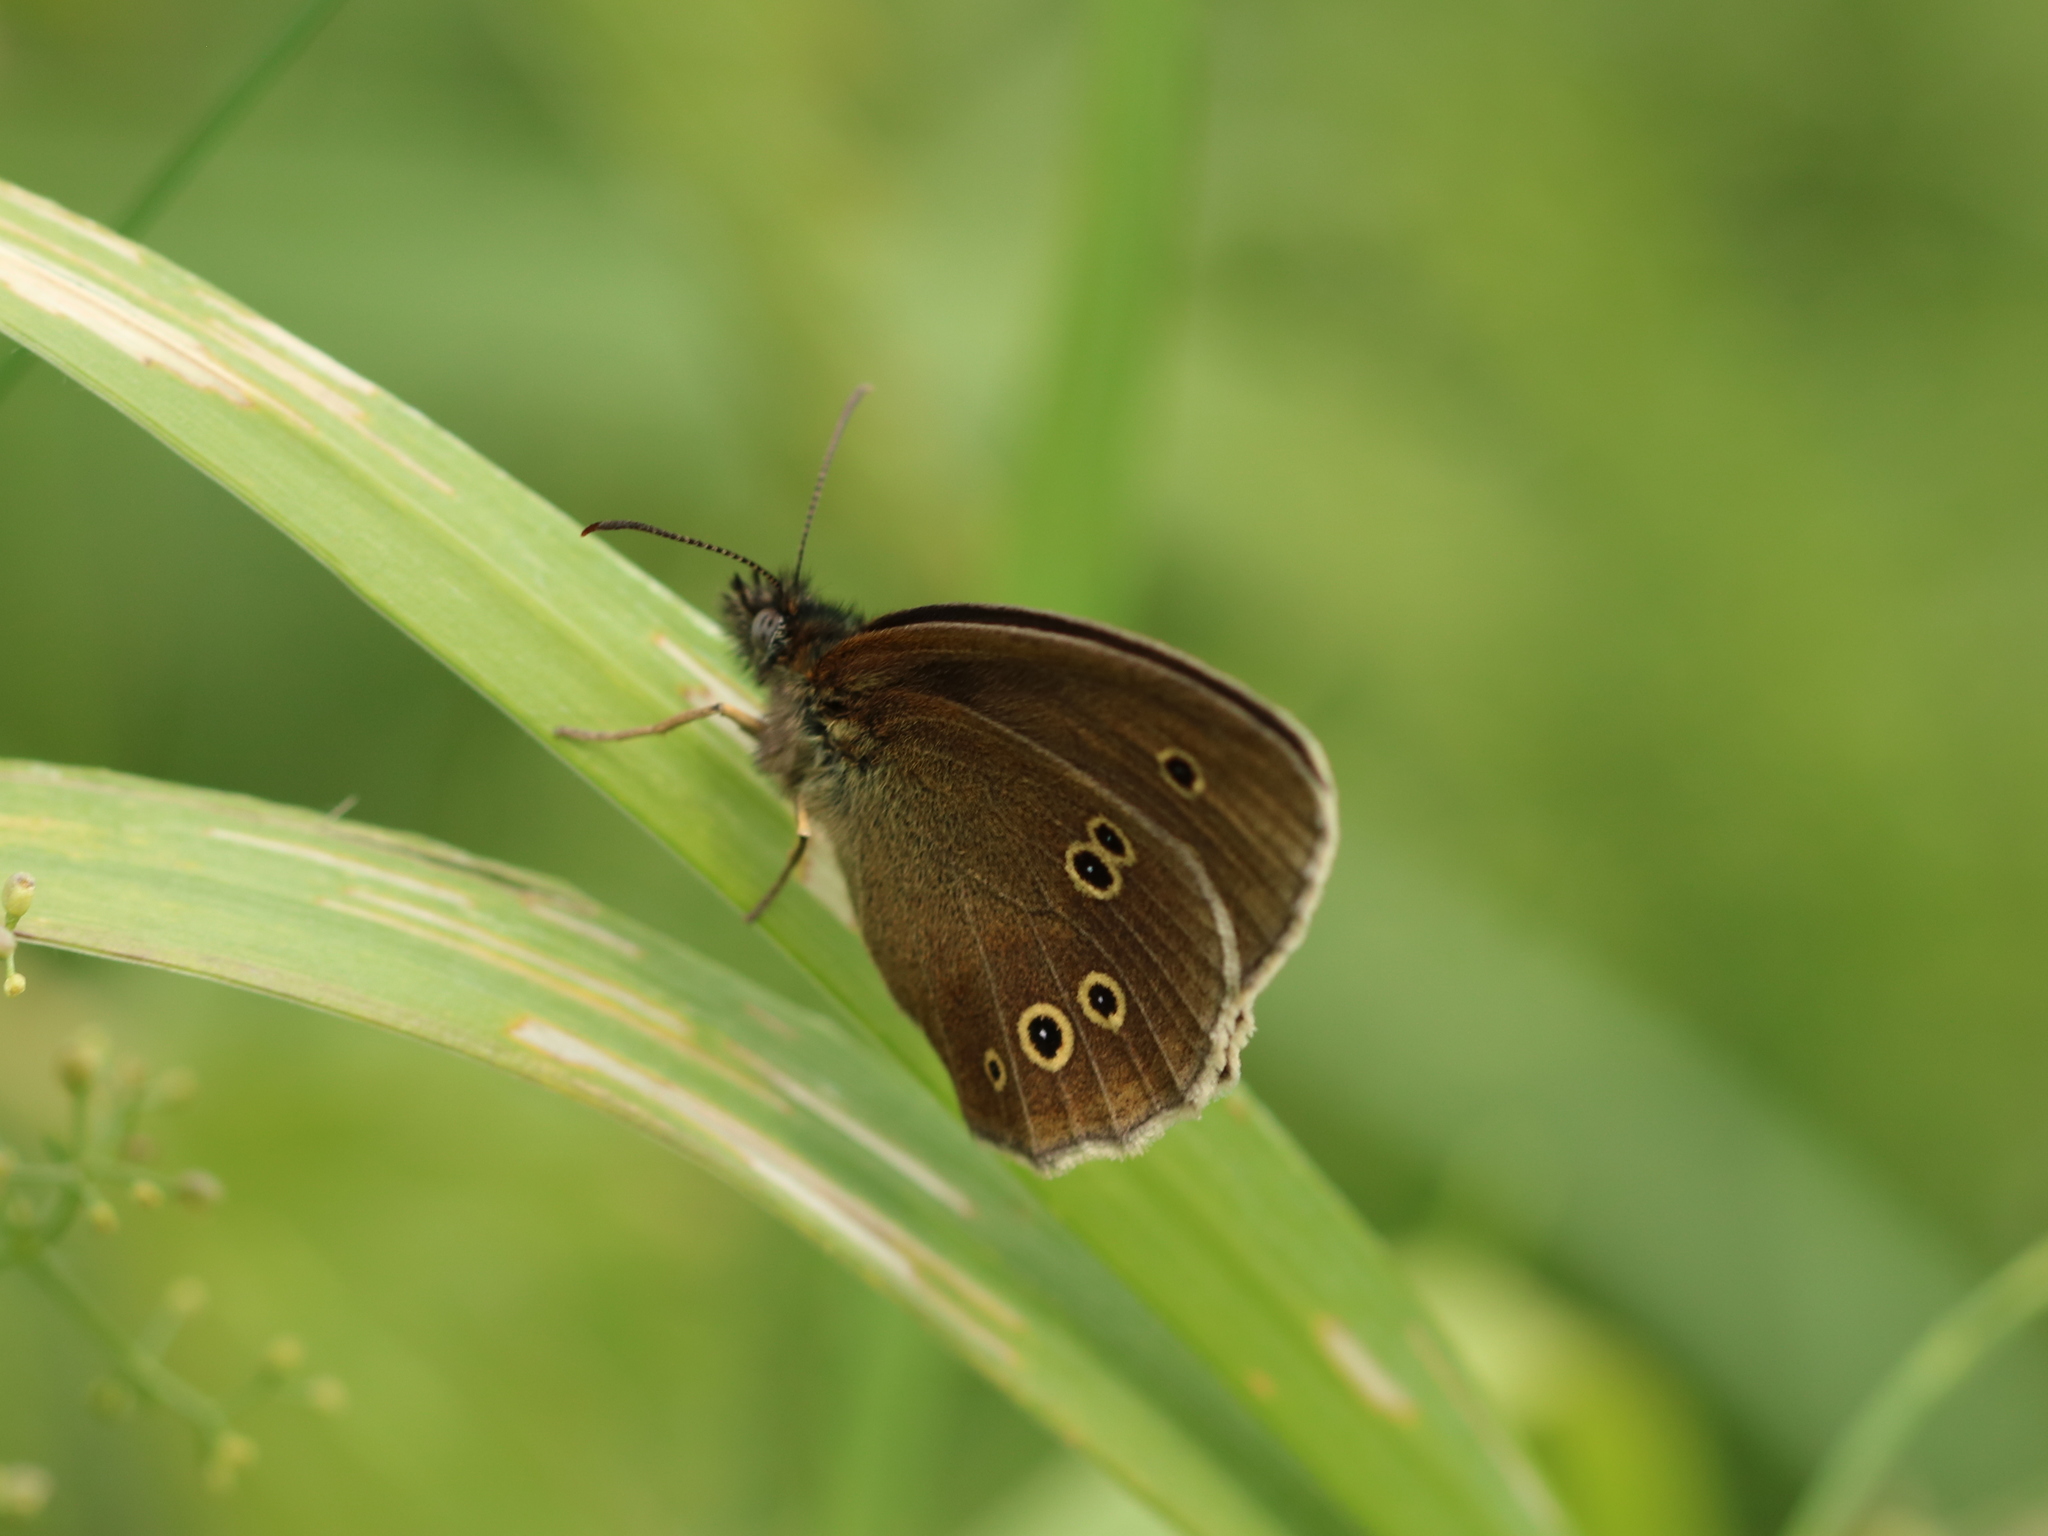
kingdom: Animalia
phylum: Arthropoda
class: Insecta
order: Lepidoptera
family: Nymphalidae
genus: Aphantopus
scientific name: Aphantopus hyperantus
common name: Ringlet
